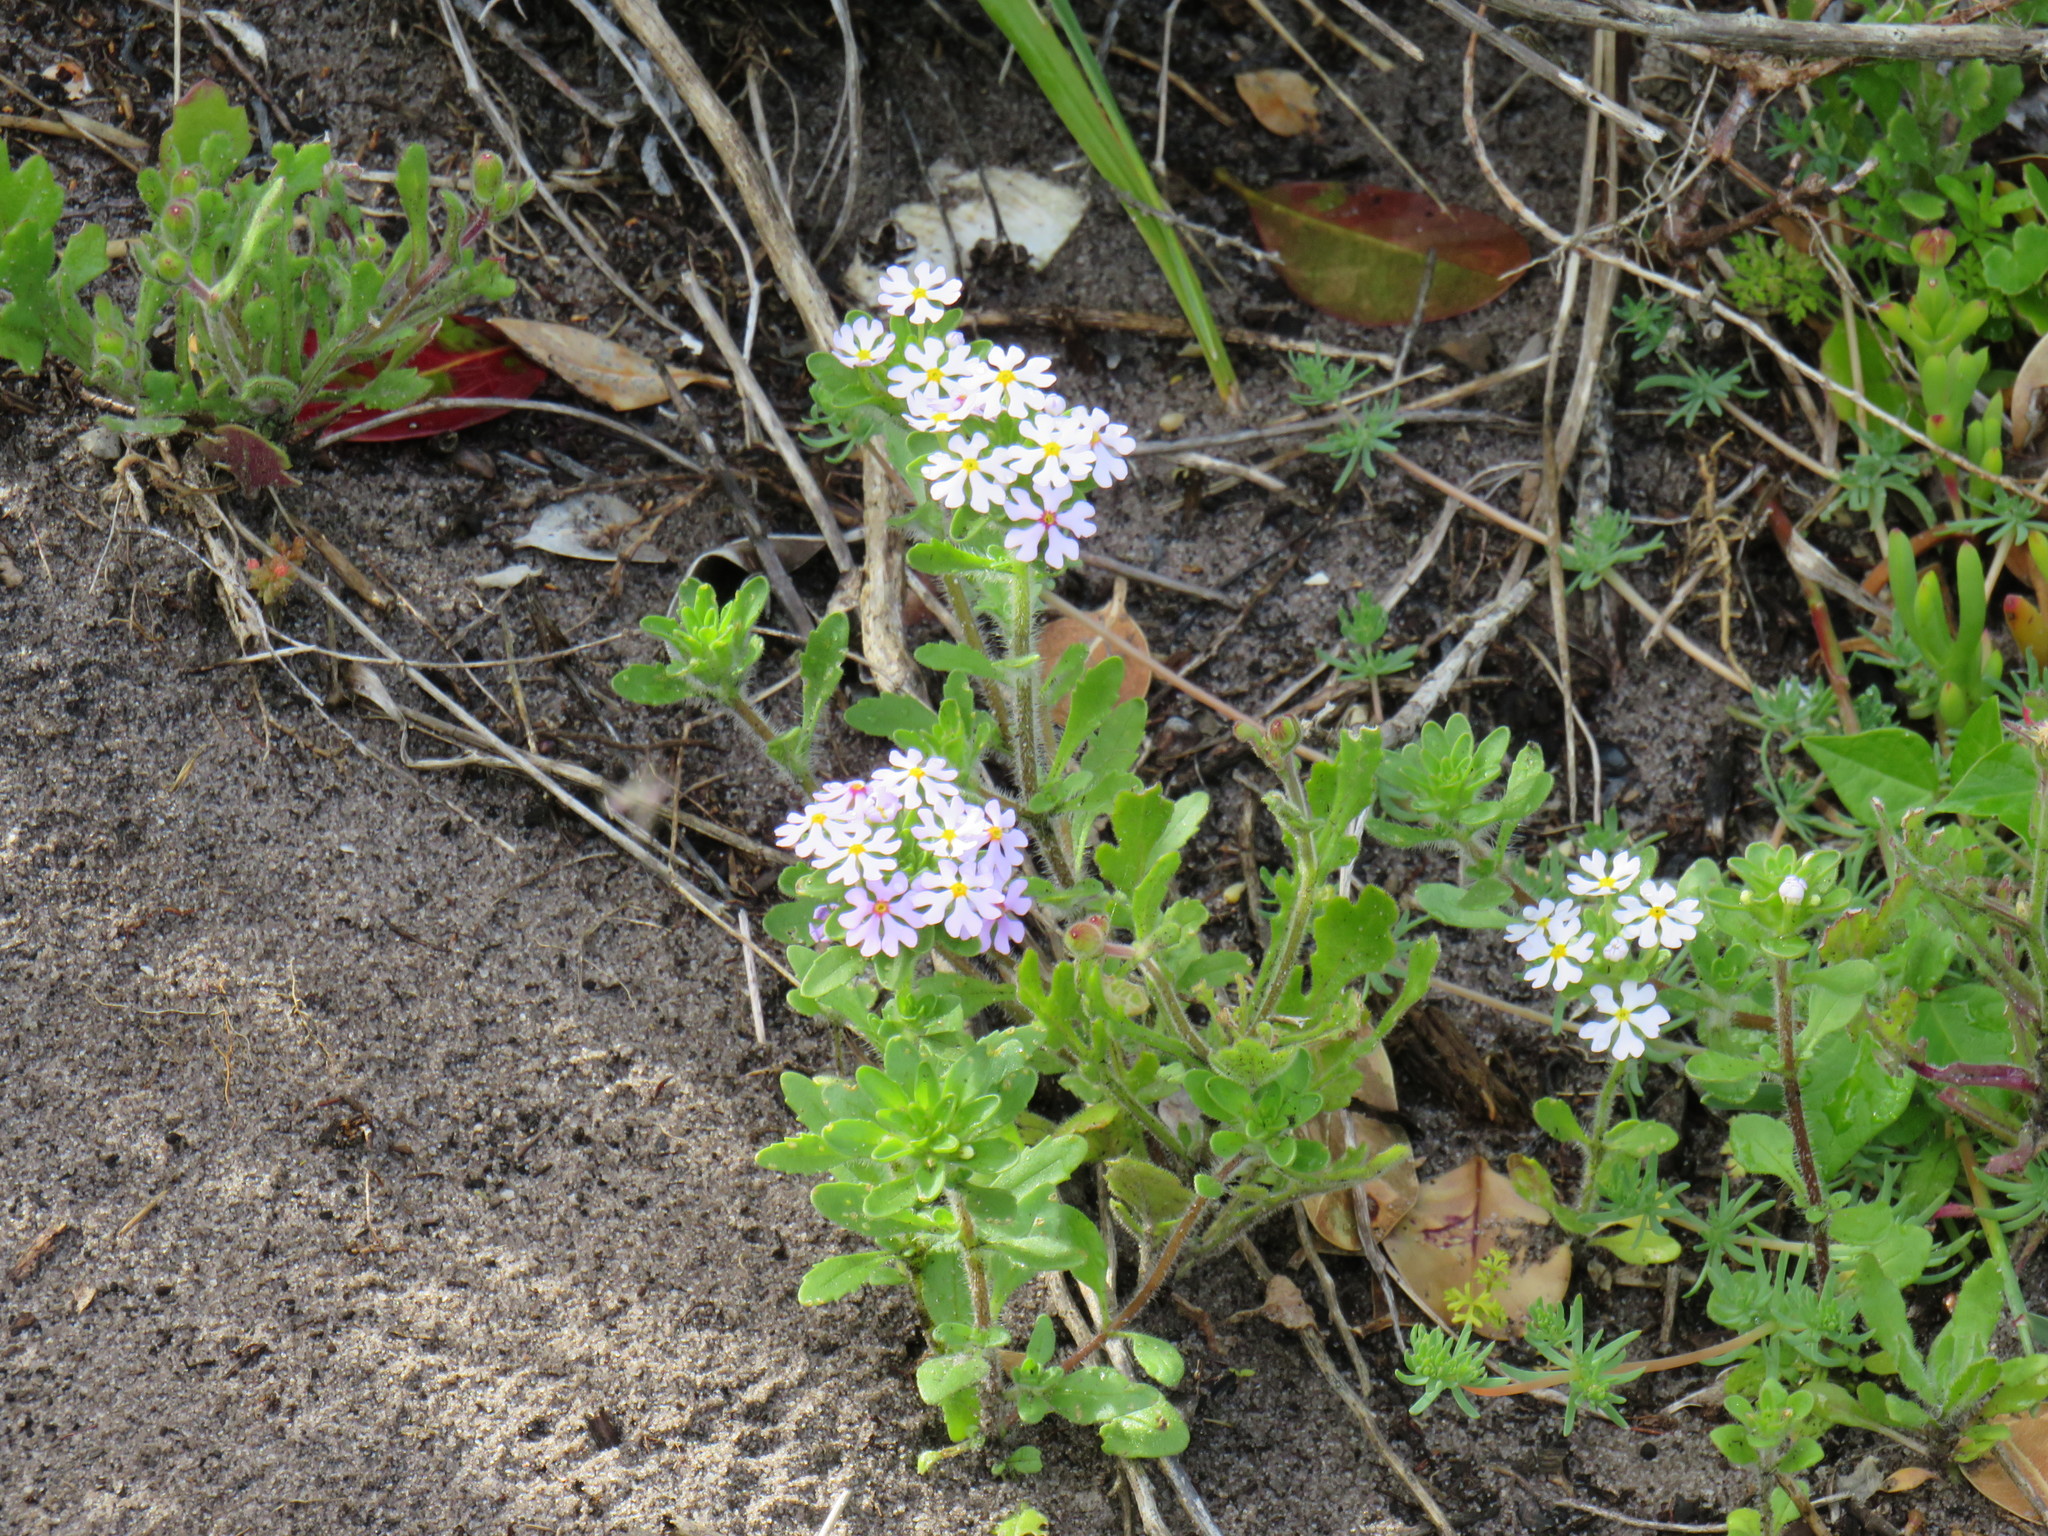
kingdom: Plantae
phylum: Tracheophyta
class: Magnoliopsida
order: Lamiales
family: Scrophulariaceae
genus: Zaluzianskya
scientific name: Zaluzianskya villosa
